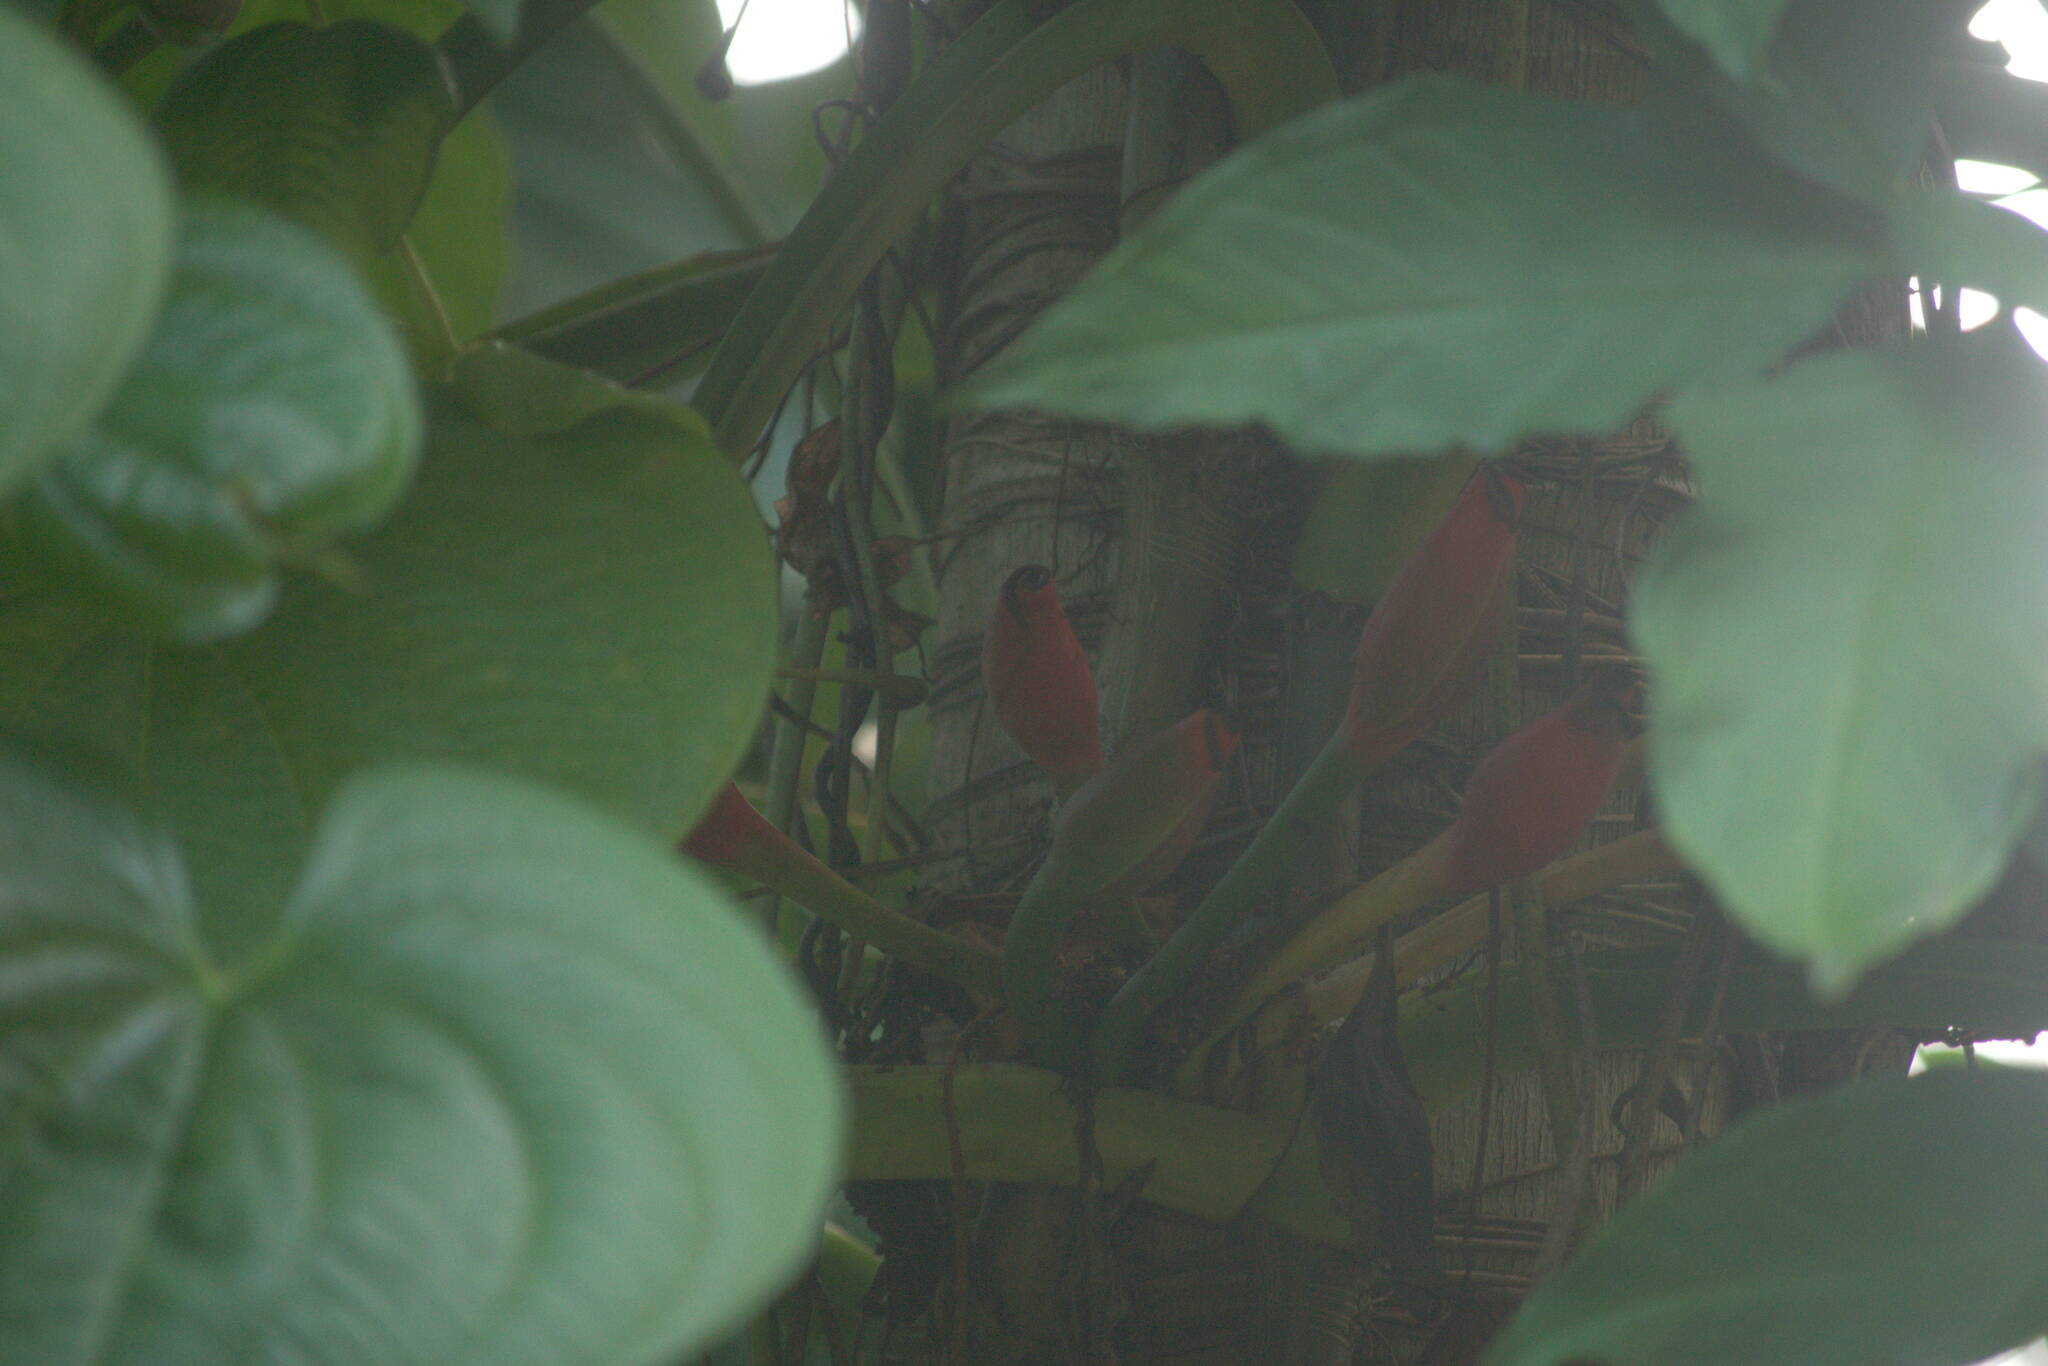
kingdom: Plantae
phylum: Tracheophyta
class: Liliopsida
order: Alismatales
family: Araceae
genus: Syngonium
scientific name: Syngonium podophyllum
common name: American evergreen
